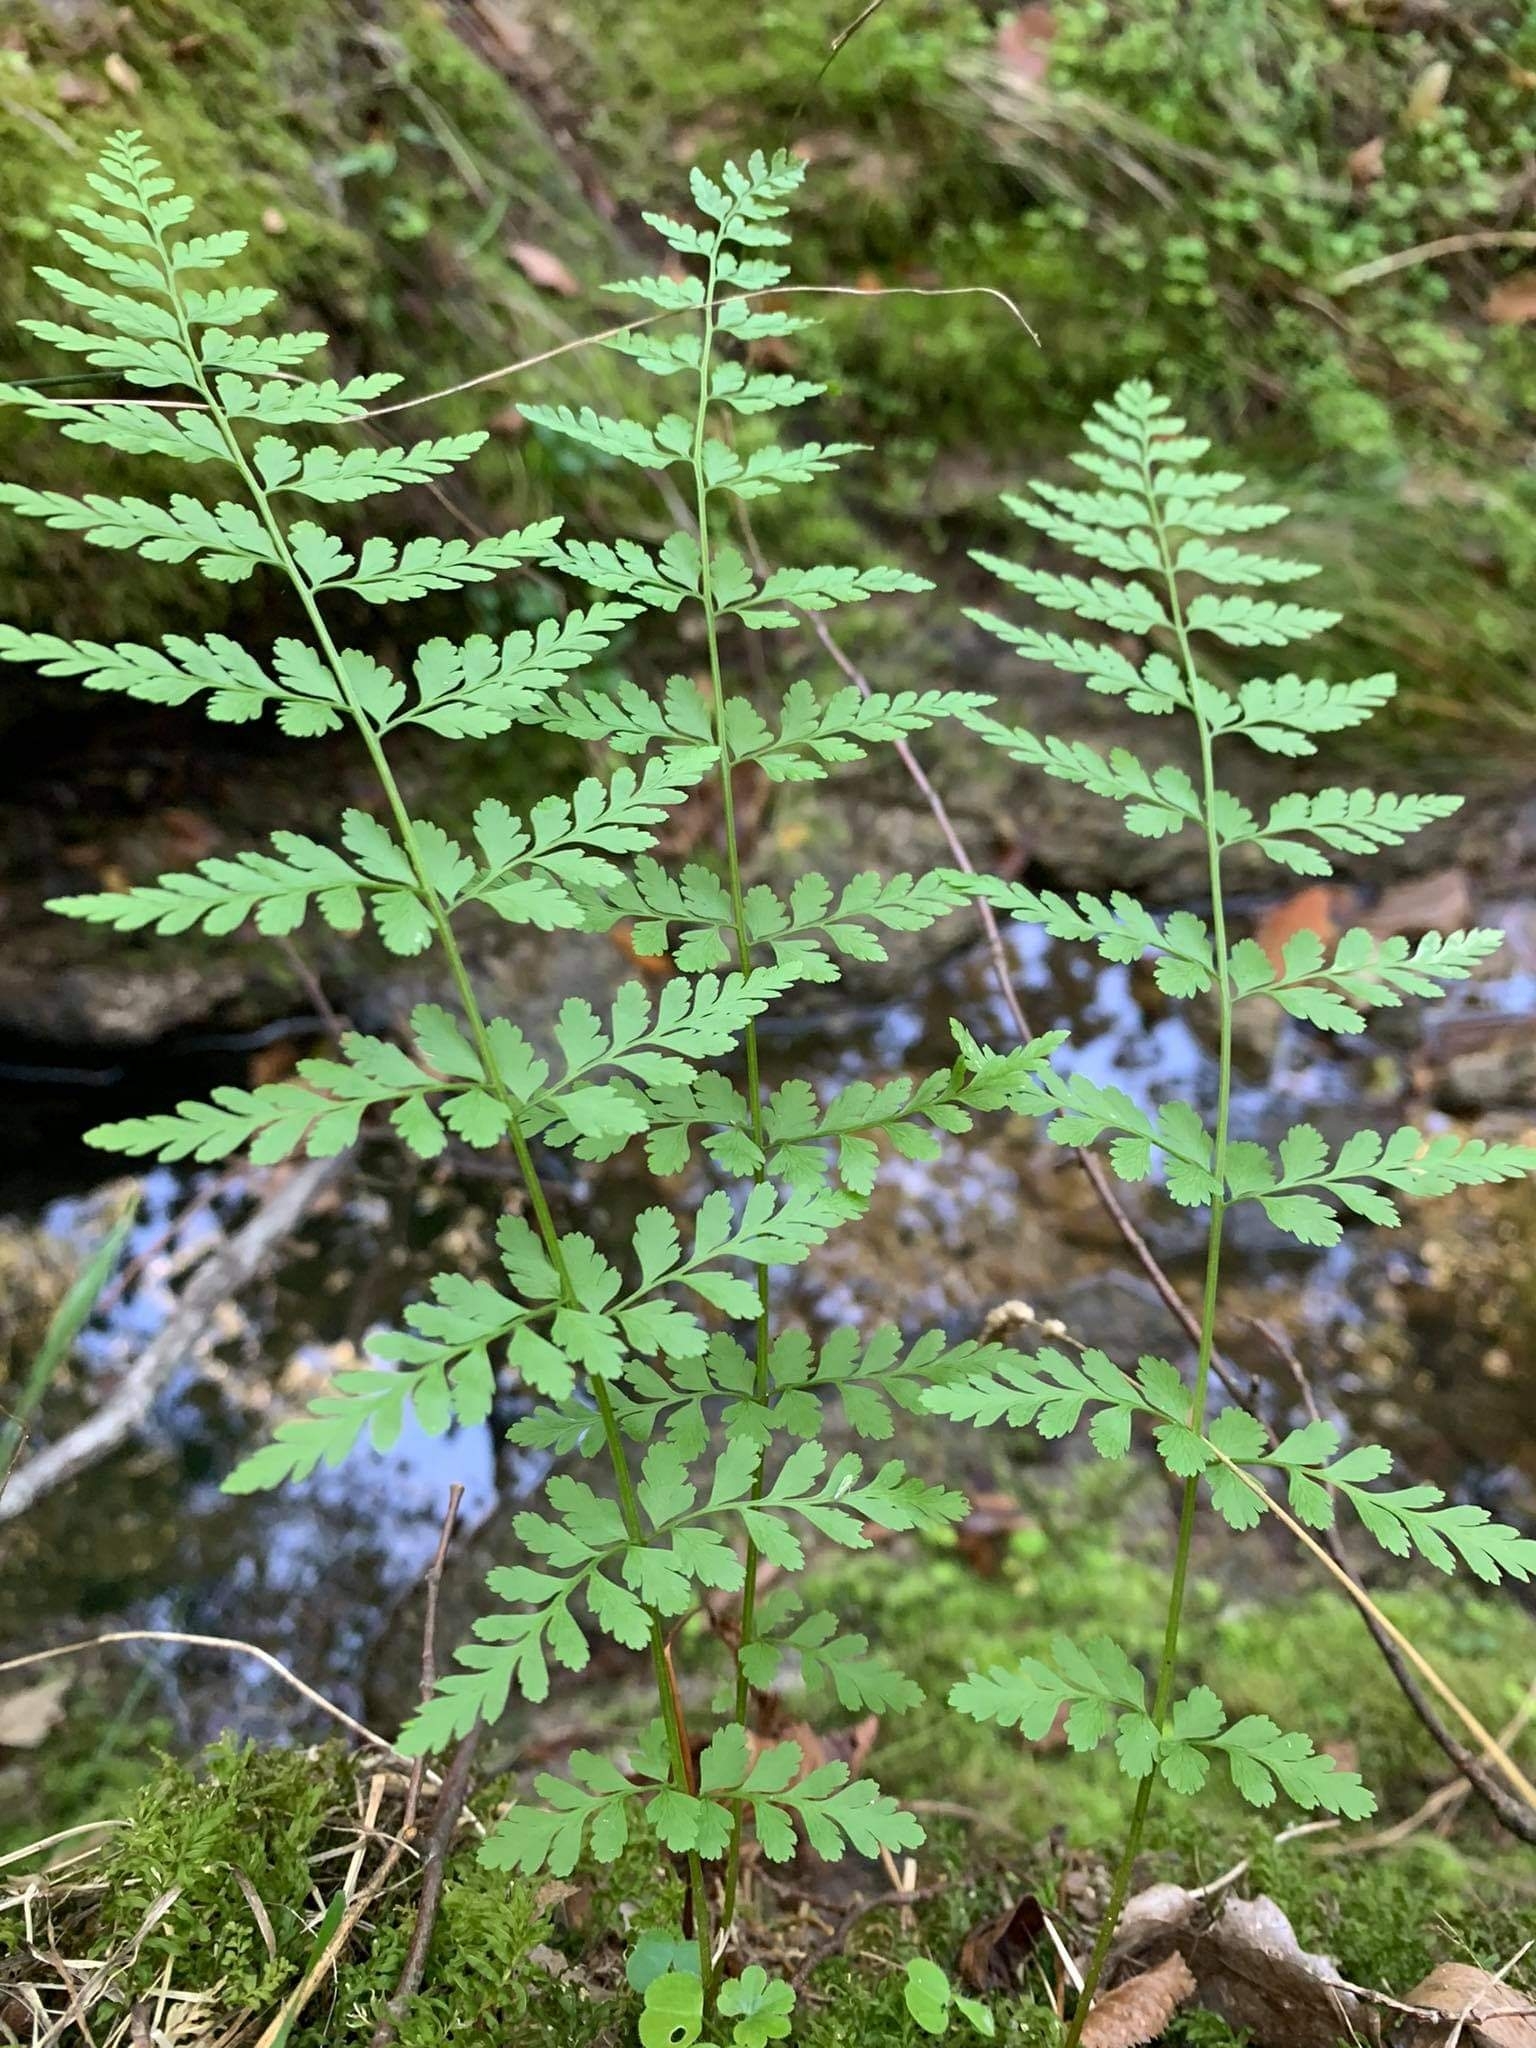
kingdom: Plantae
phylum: Tracheophyta
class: Polypodiopsida
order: Polypodiales
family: Cystopteridaceae
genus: Cystopteris
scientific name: Cystopteris fragilis
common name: Brittle bladder fern
